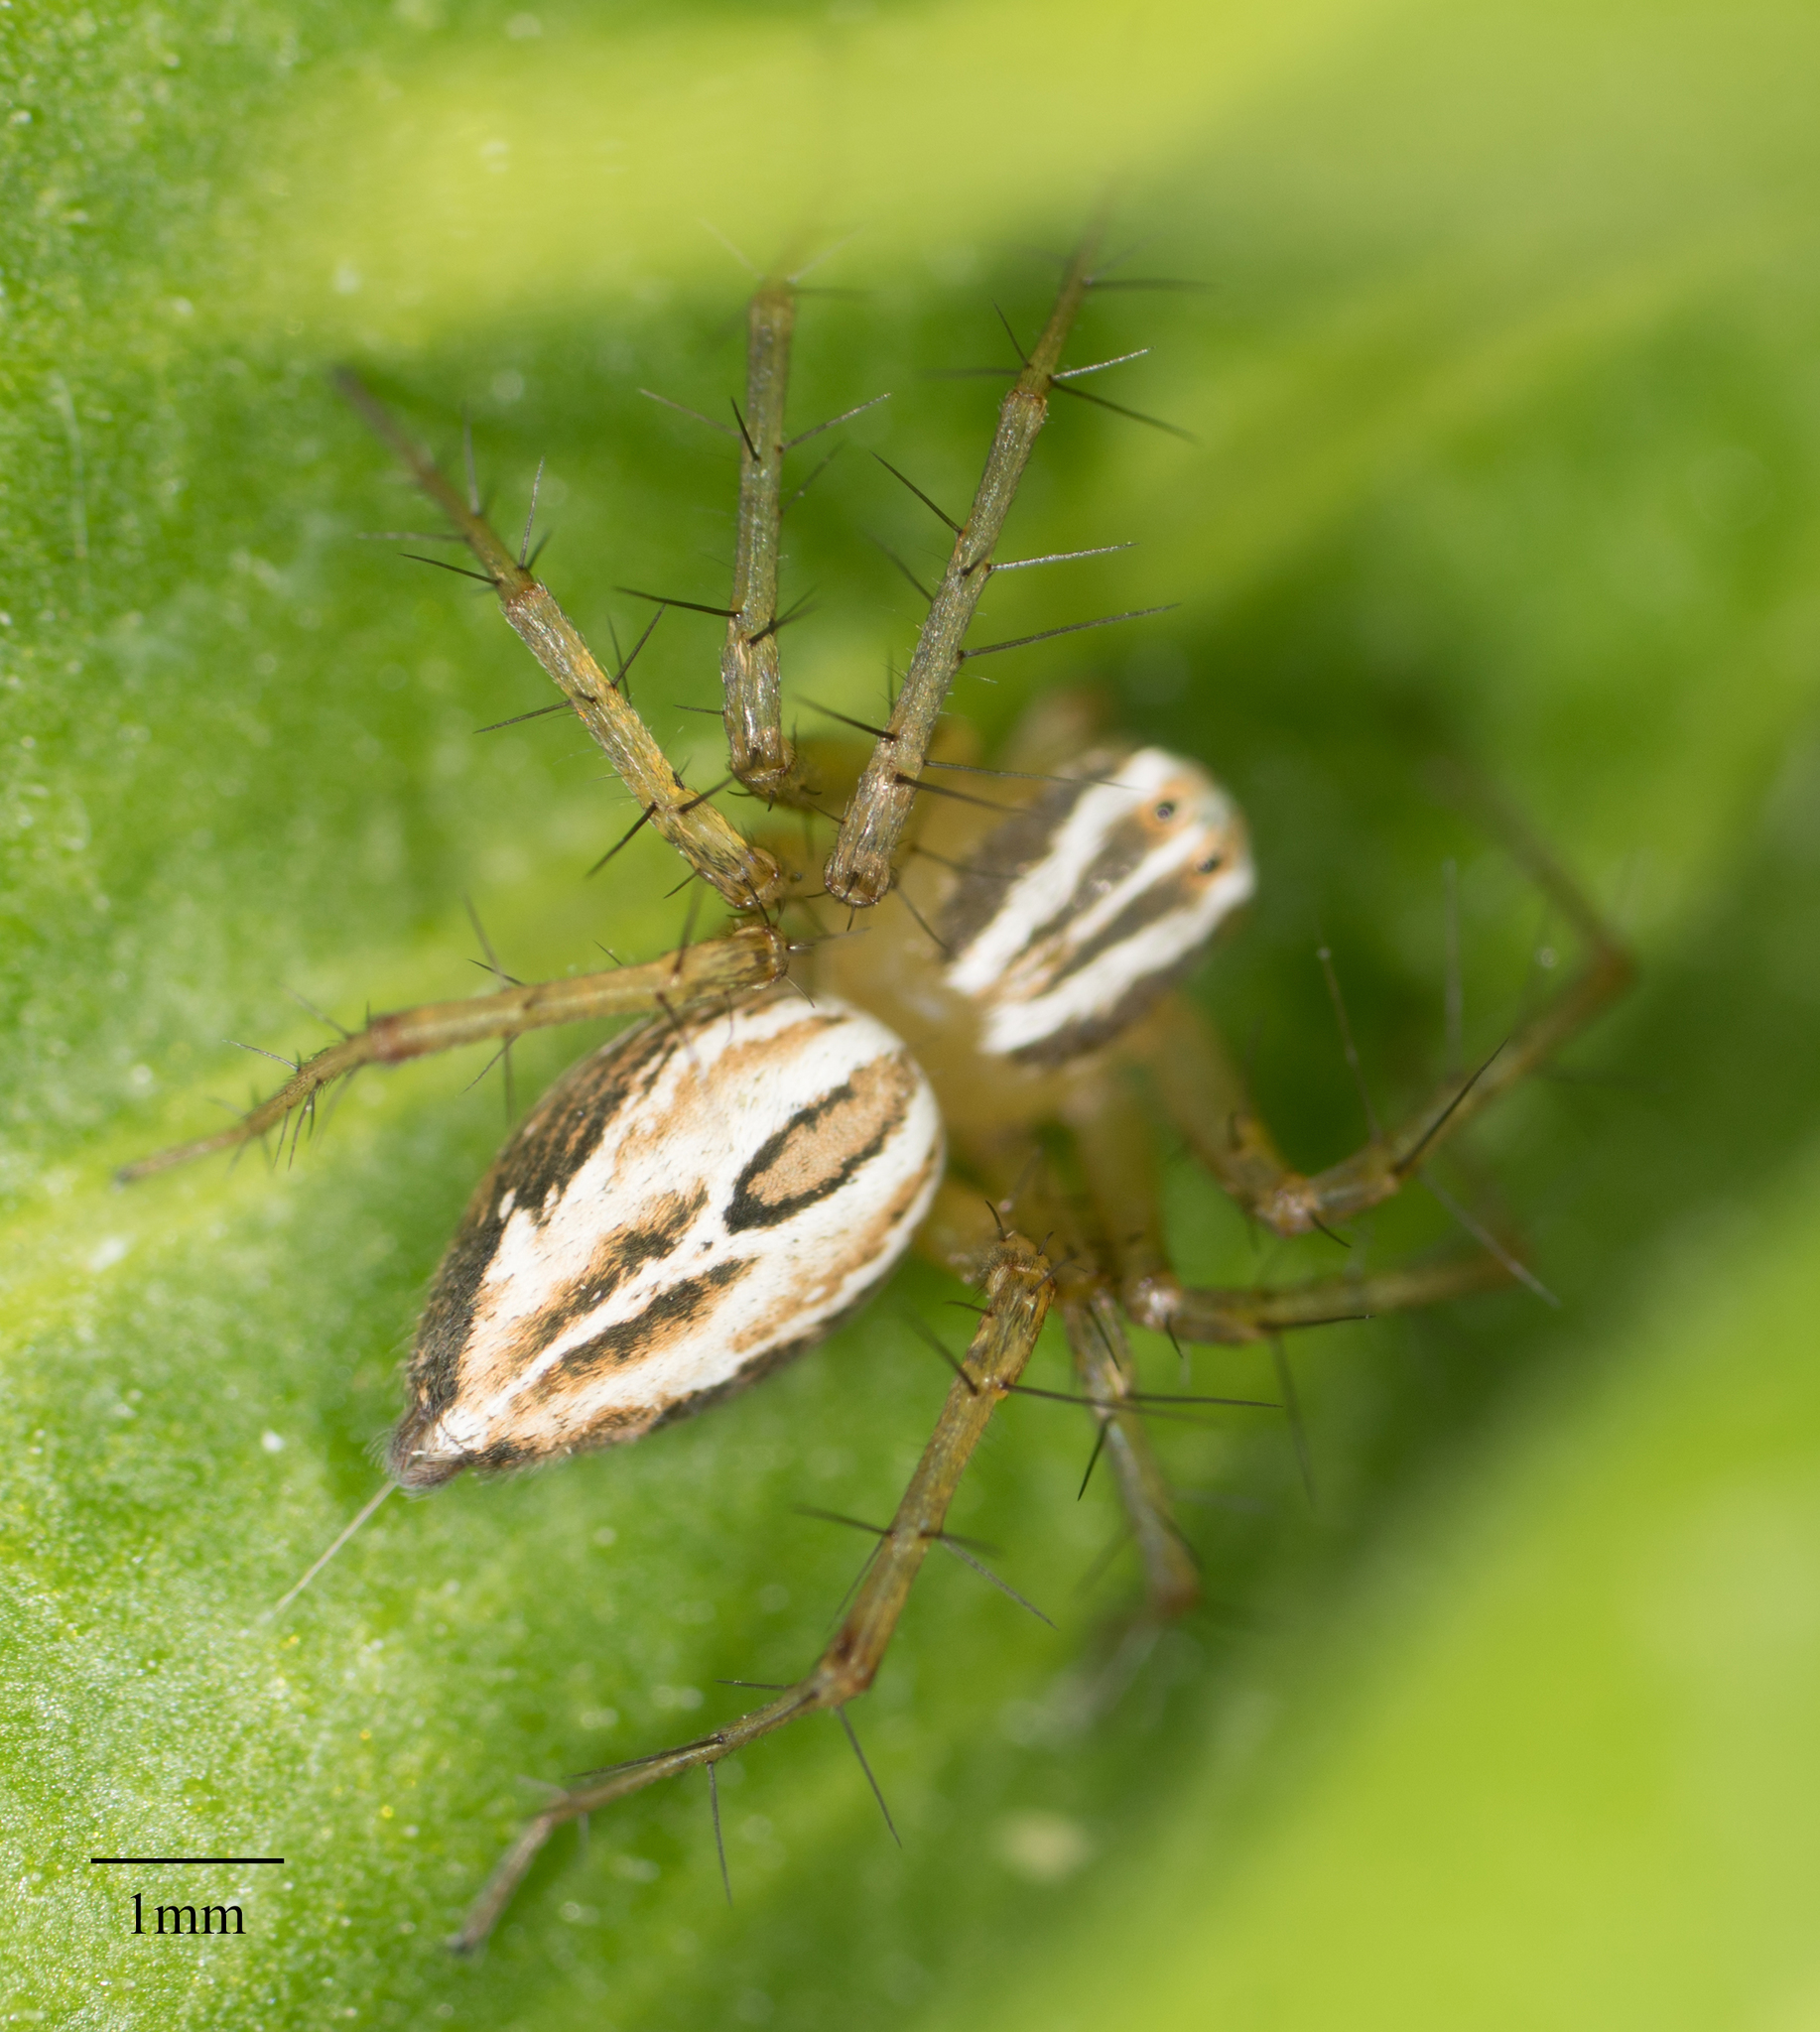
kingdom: Animalia
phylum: Arthropoda
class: Arachnida
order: Araneae
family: Oxyopidae
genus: Oxyopes
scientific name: Oxyopes salticus
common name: Lynx spiders
